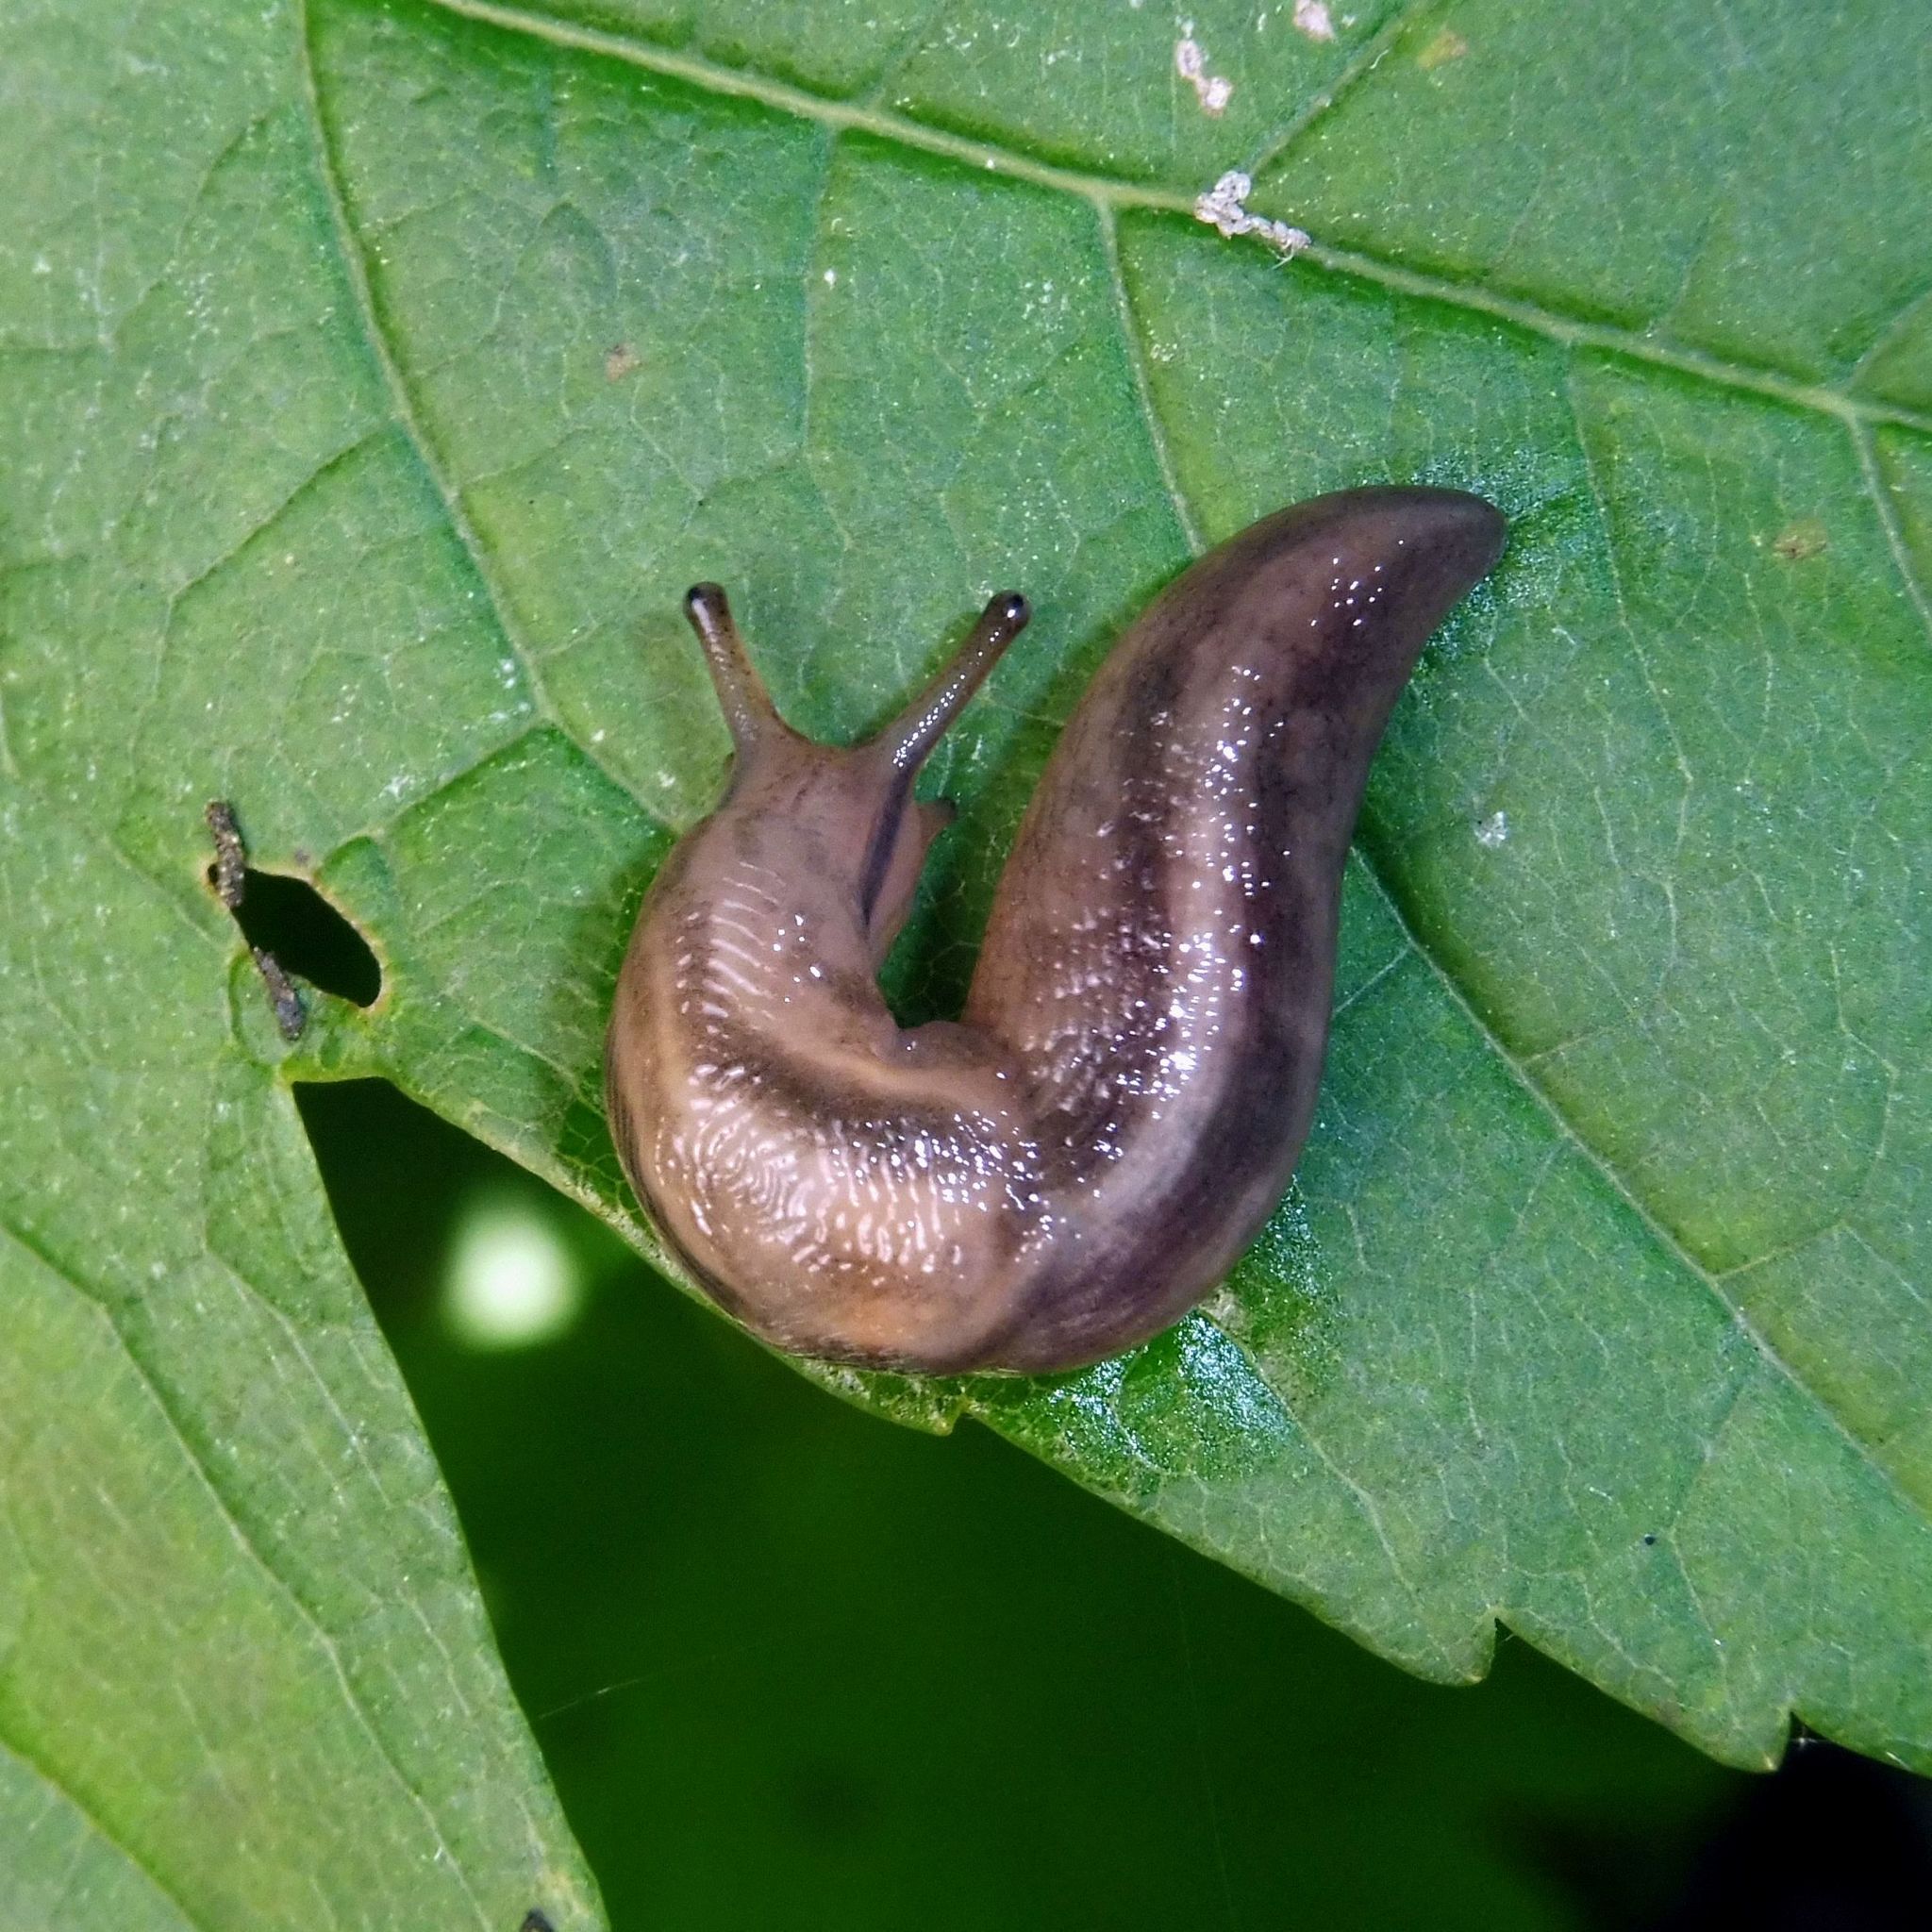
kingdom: Animalia
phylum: Mollusca
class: Gastropoda
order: Stylommatophora
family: Limacidae
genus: Lehmannia
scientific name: Lehmannia marginata
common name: Tree slug
